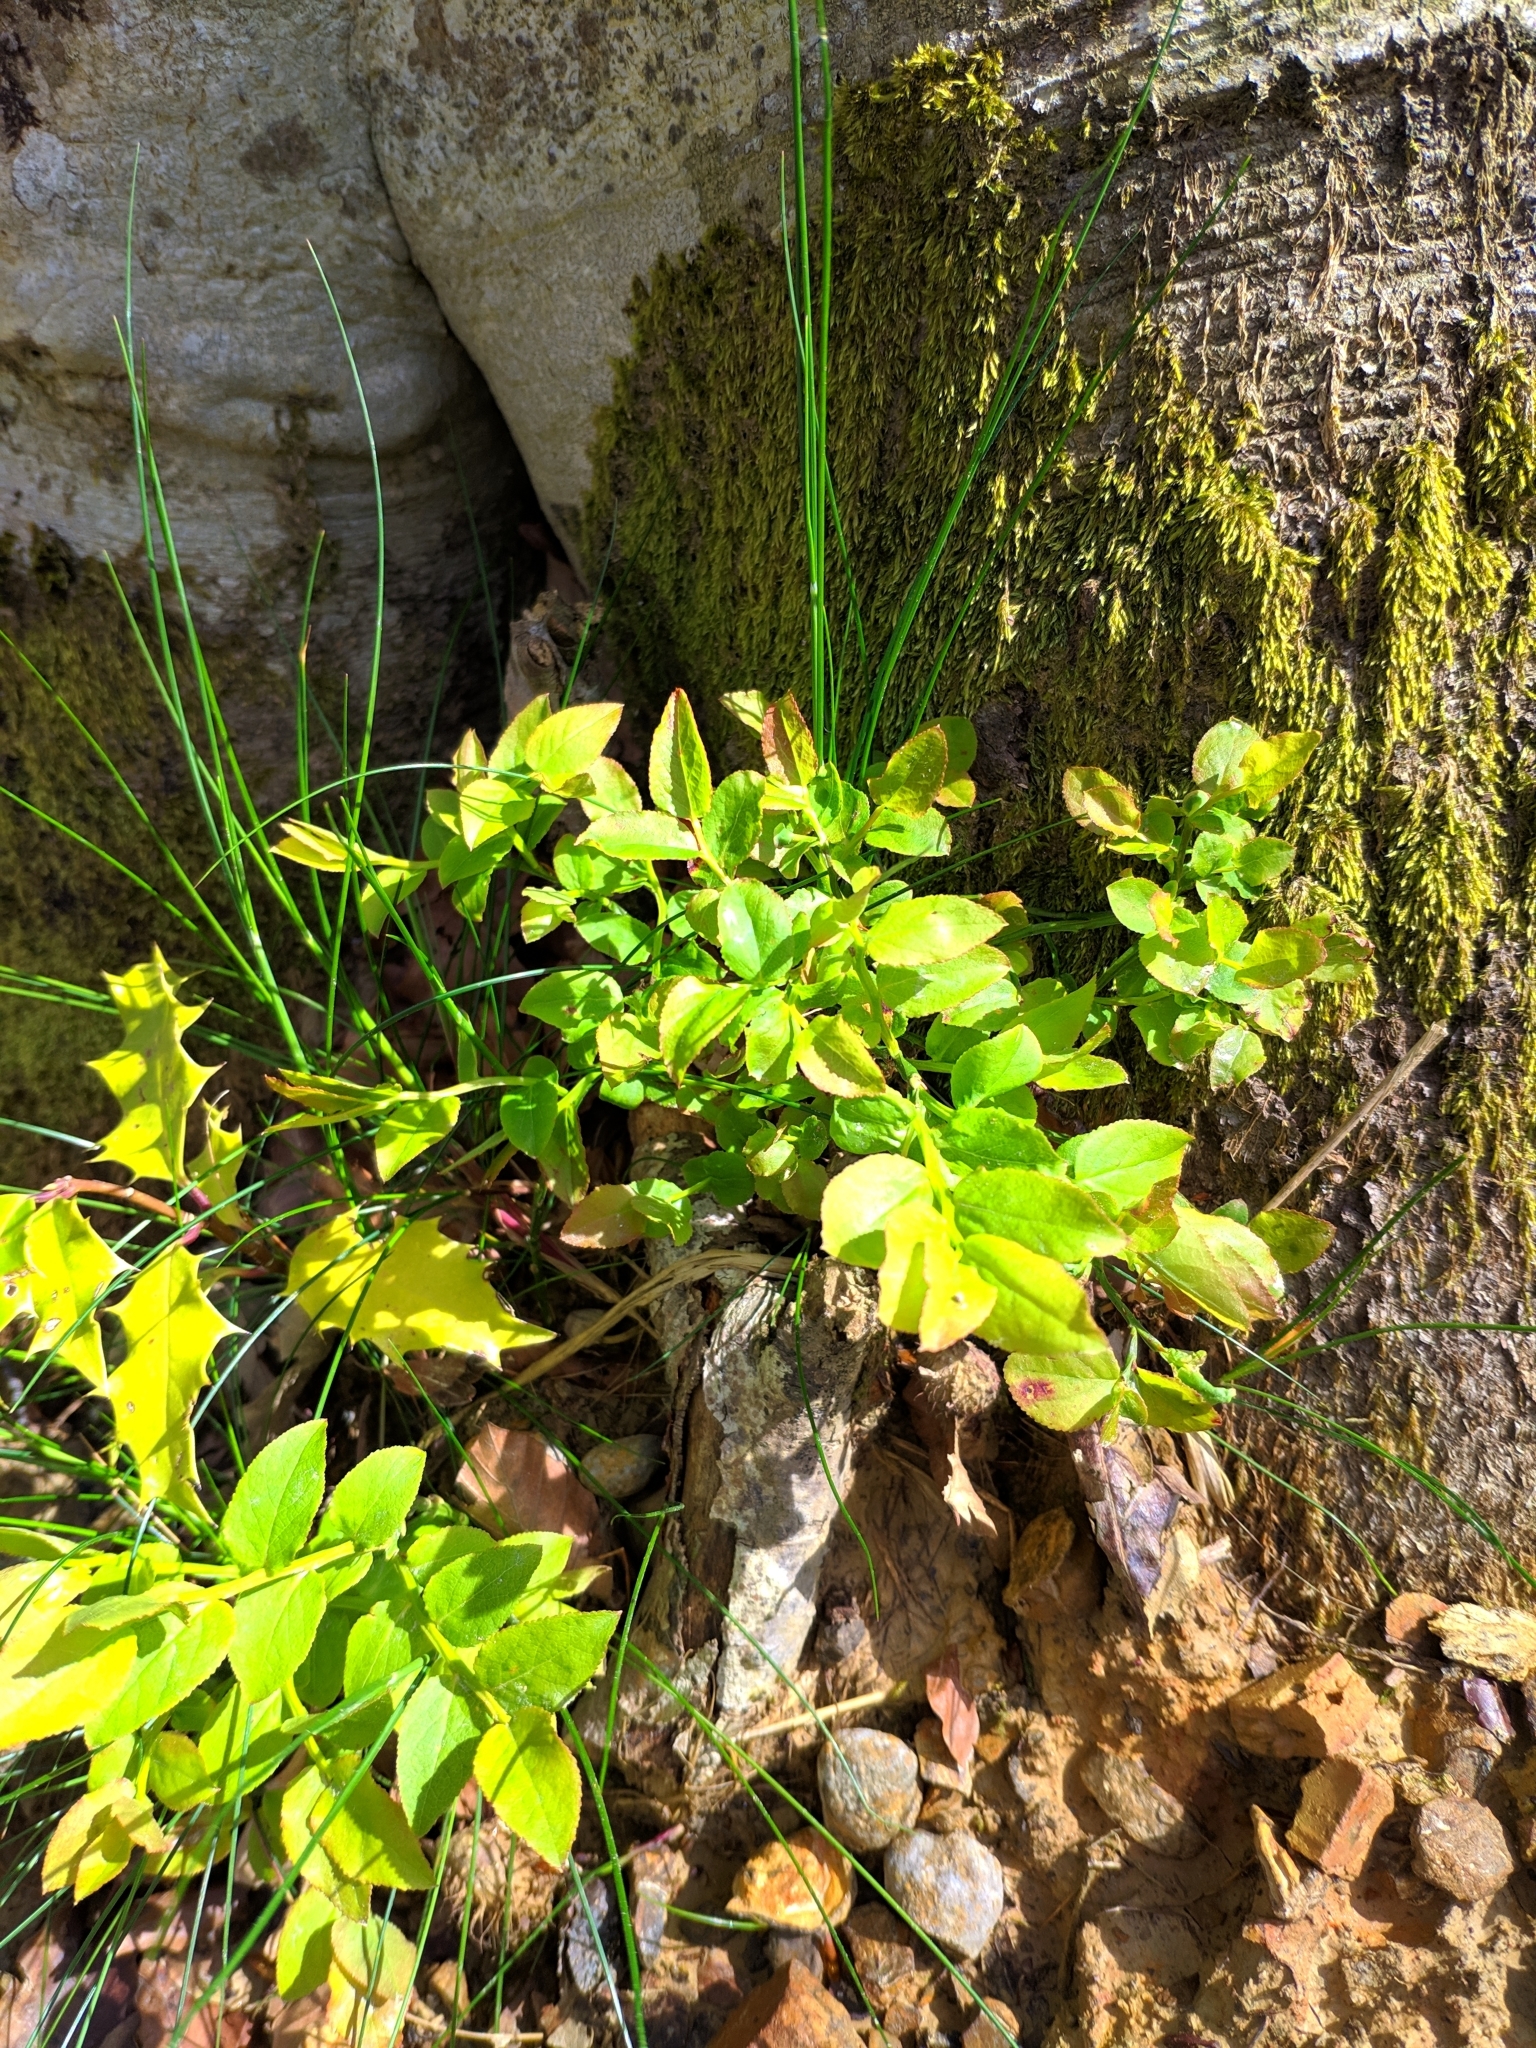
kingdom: Plantae
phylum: Tracheophyta
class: Magnoliopsida
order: Ericales
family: Ericaceae
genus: Vaccinium
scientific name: Vaccinium myrtillus
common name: Bilberry
